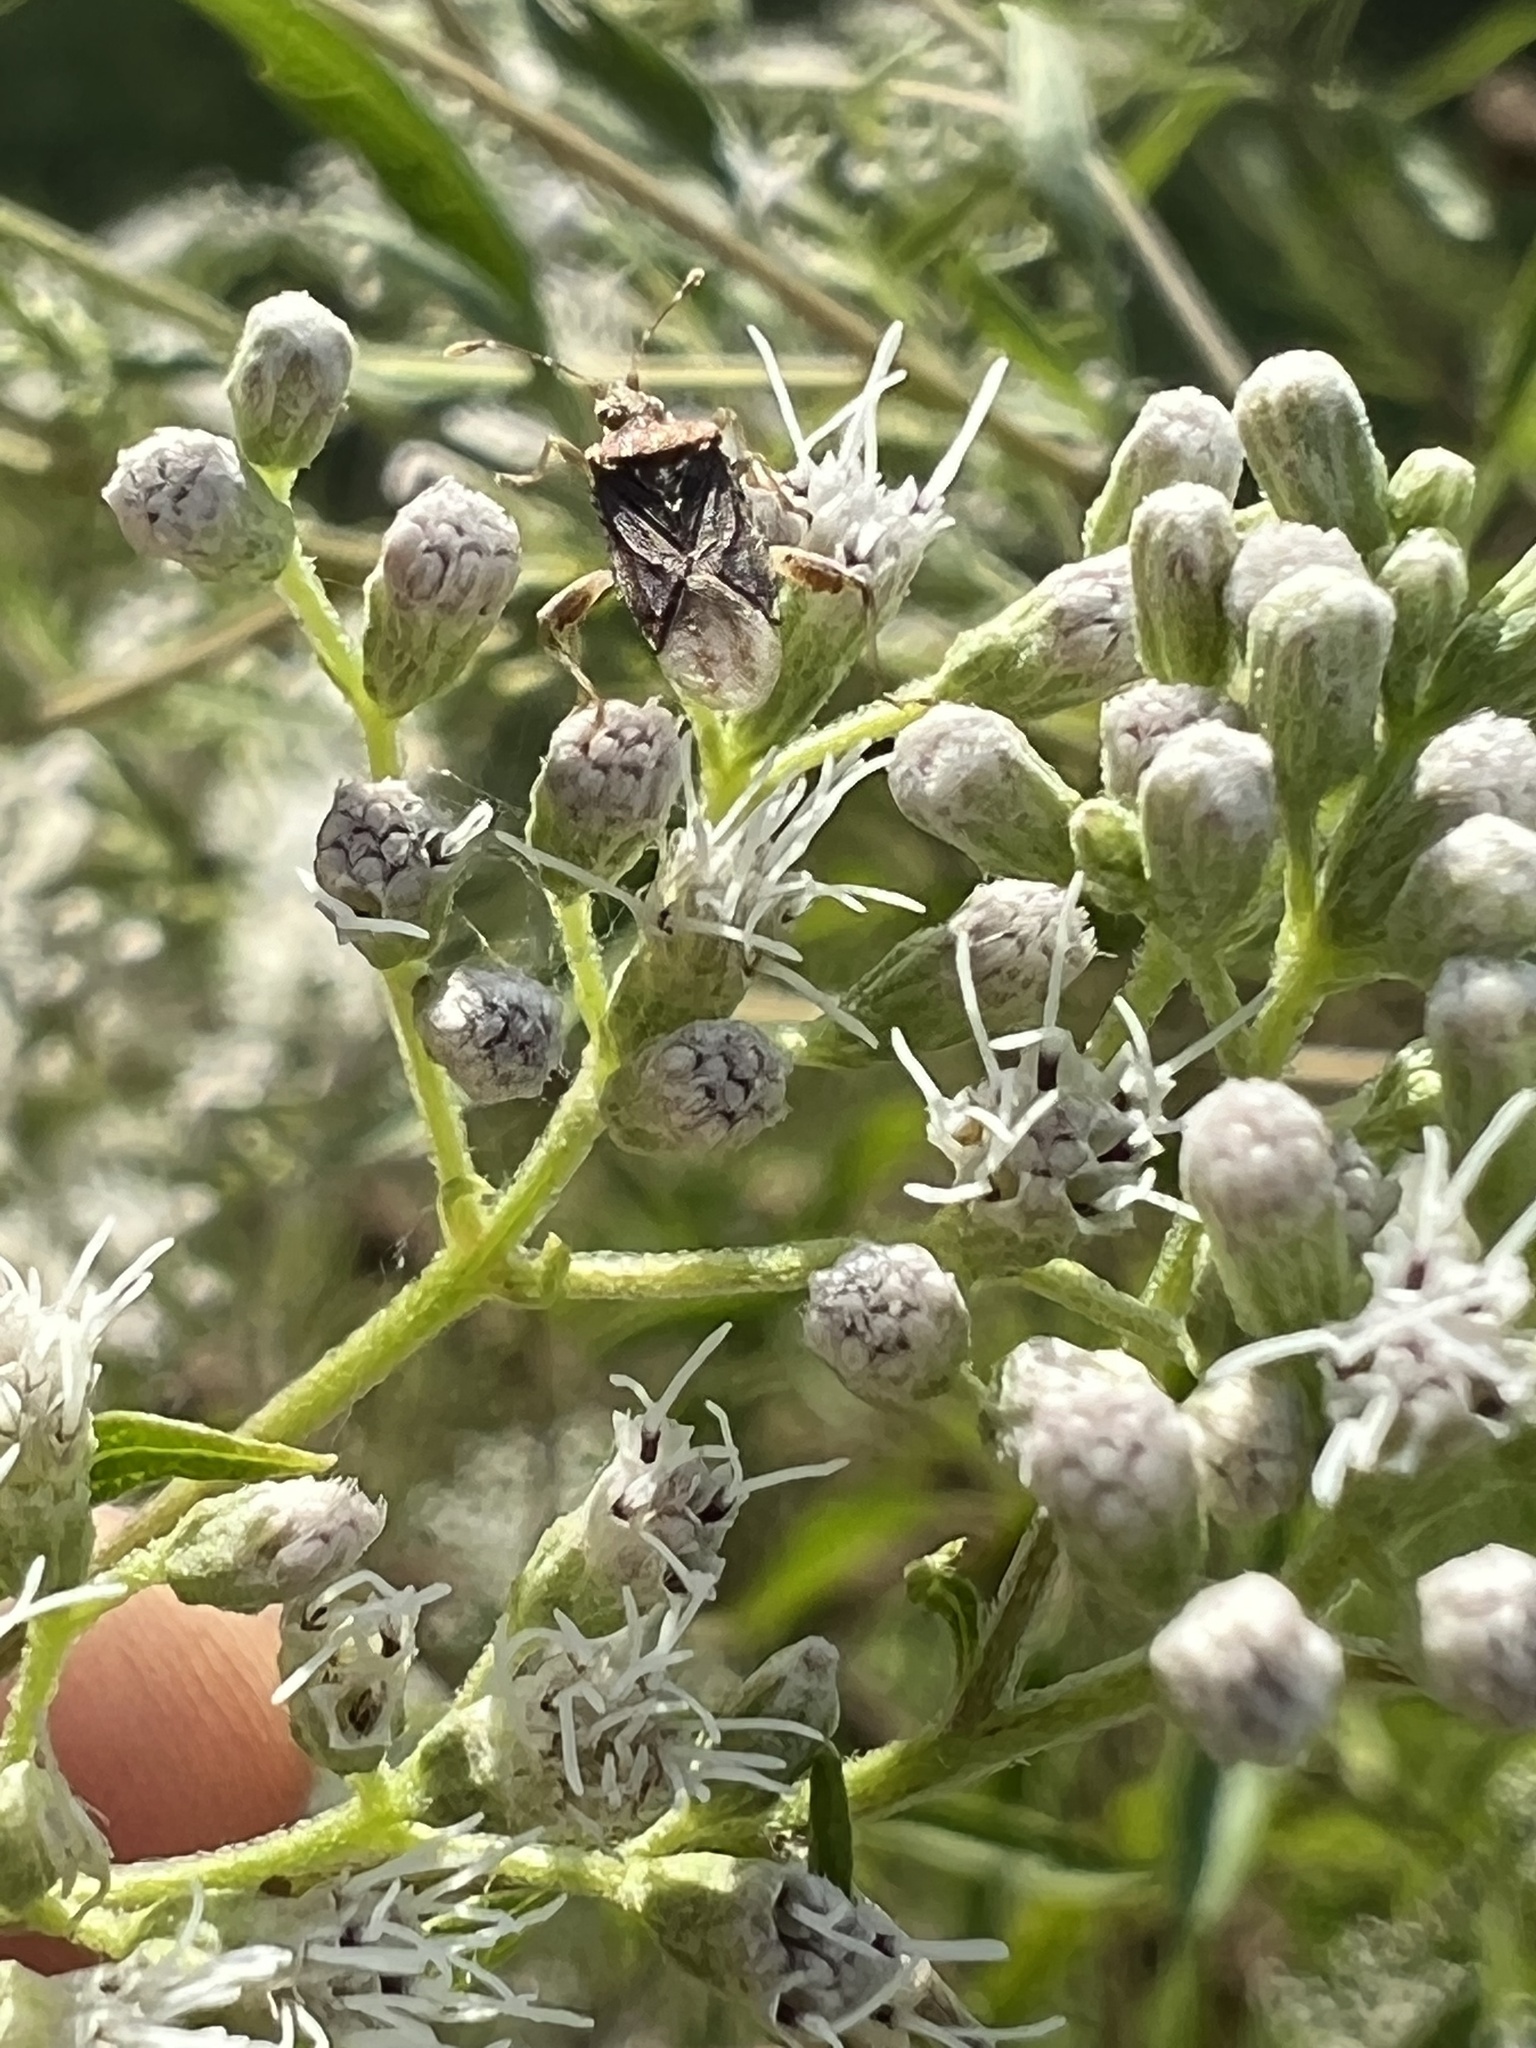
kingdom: Animalia
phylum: Arthropoda
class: Insecta
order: Hemiptera
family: Rhopalidae
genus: Harmostes
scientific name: Harmostes fraterculus
